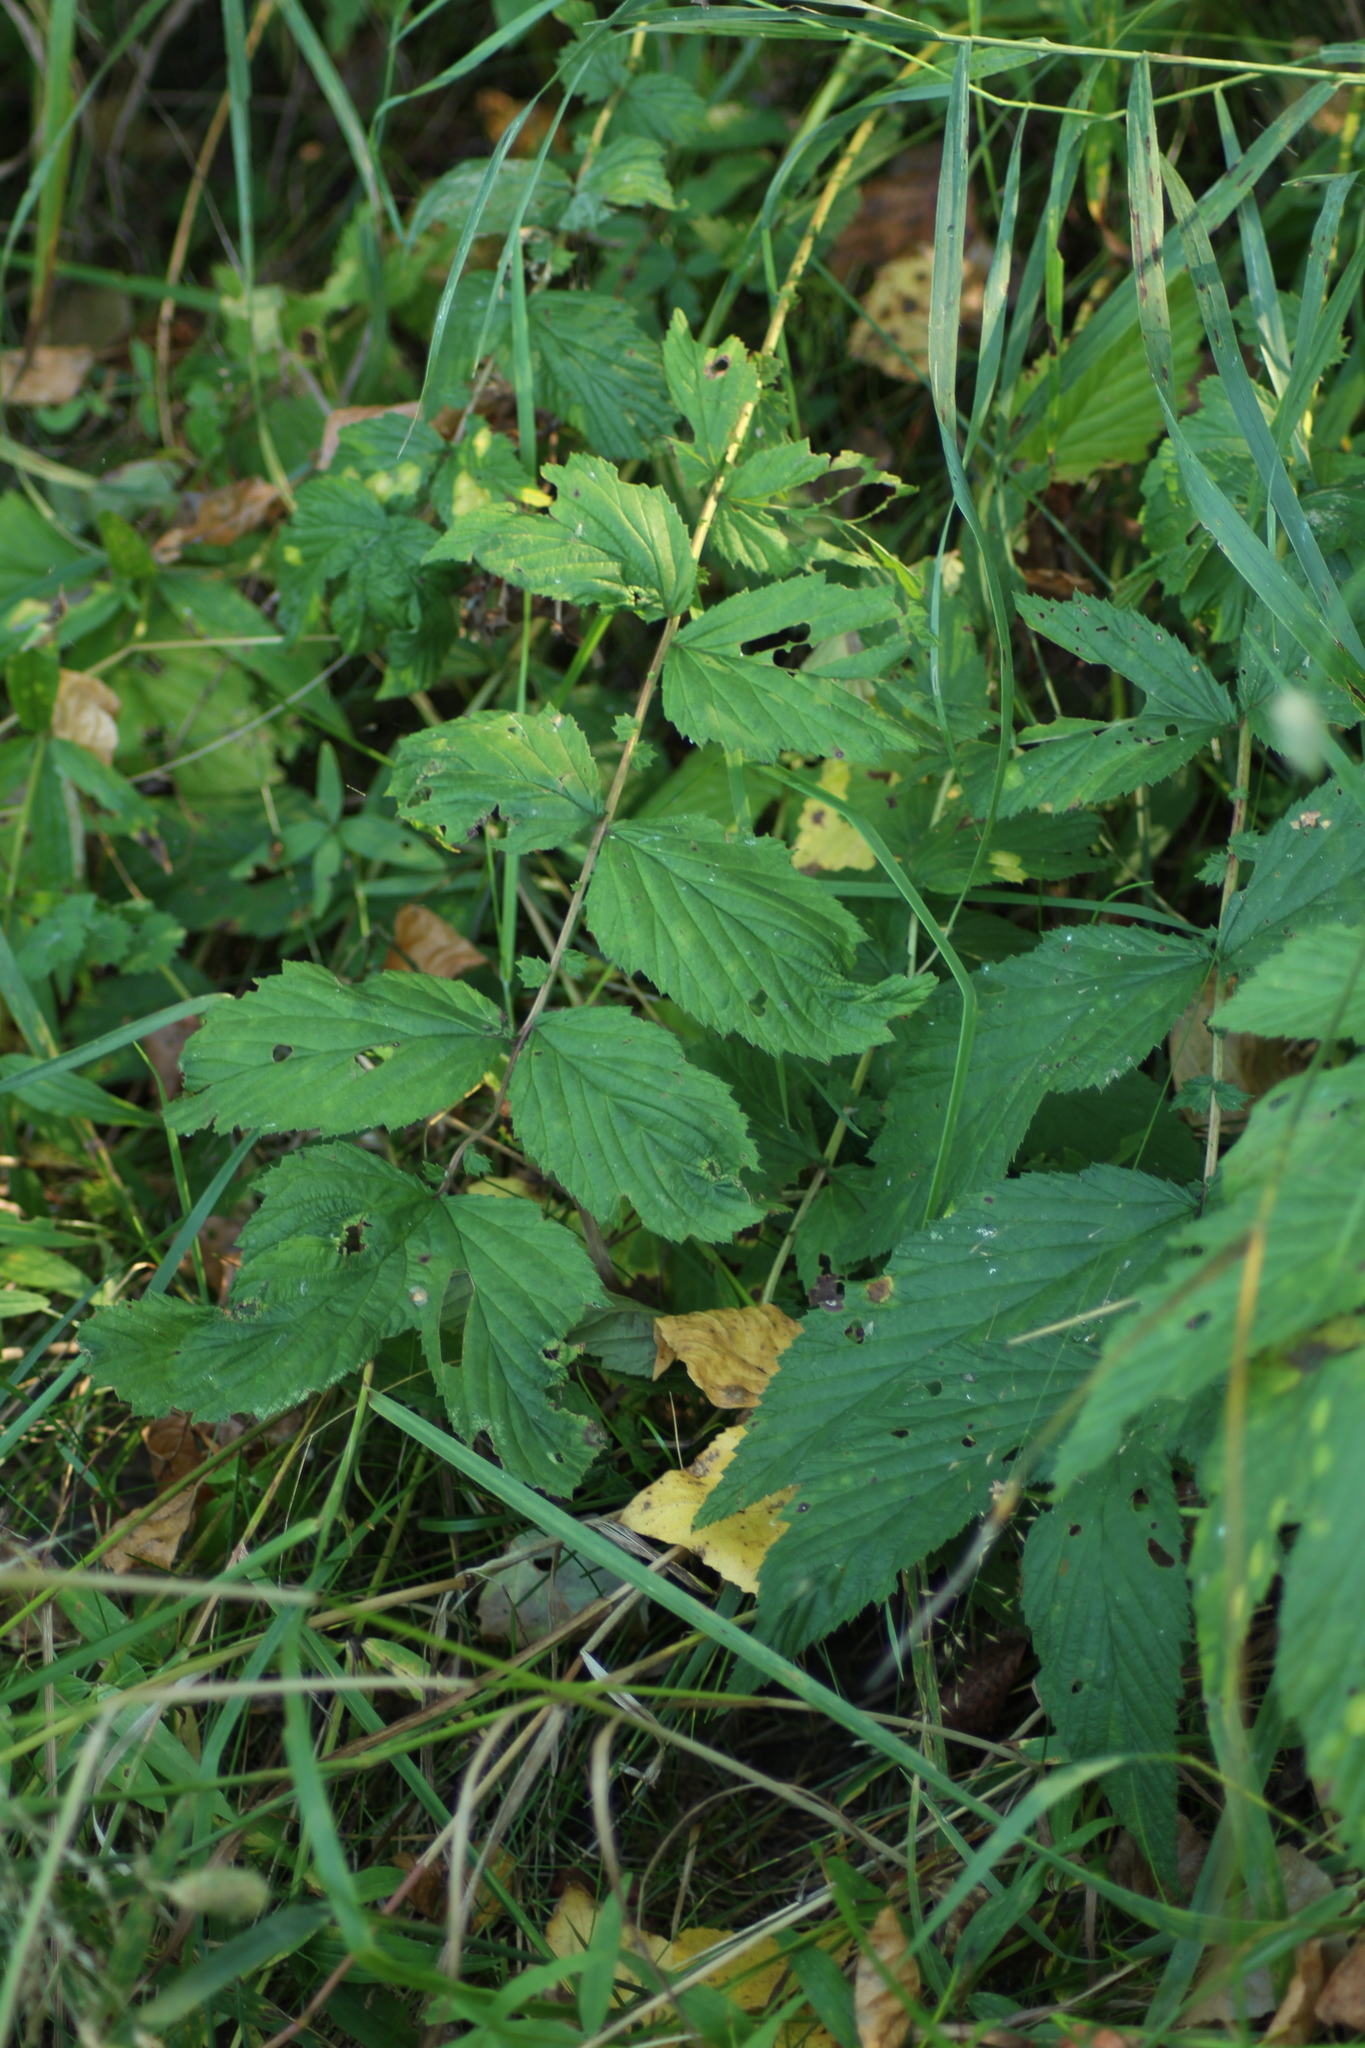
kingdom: Plantae
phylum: Tracheophyta
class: Magnoliopsida
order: Rosales
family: Rosaceae
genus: Filipendula
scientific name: Filipendula ulmaria
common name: Meadowsweet
